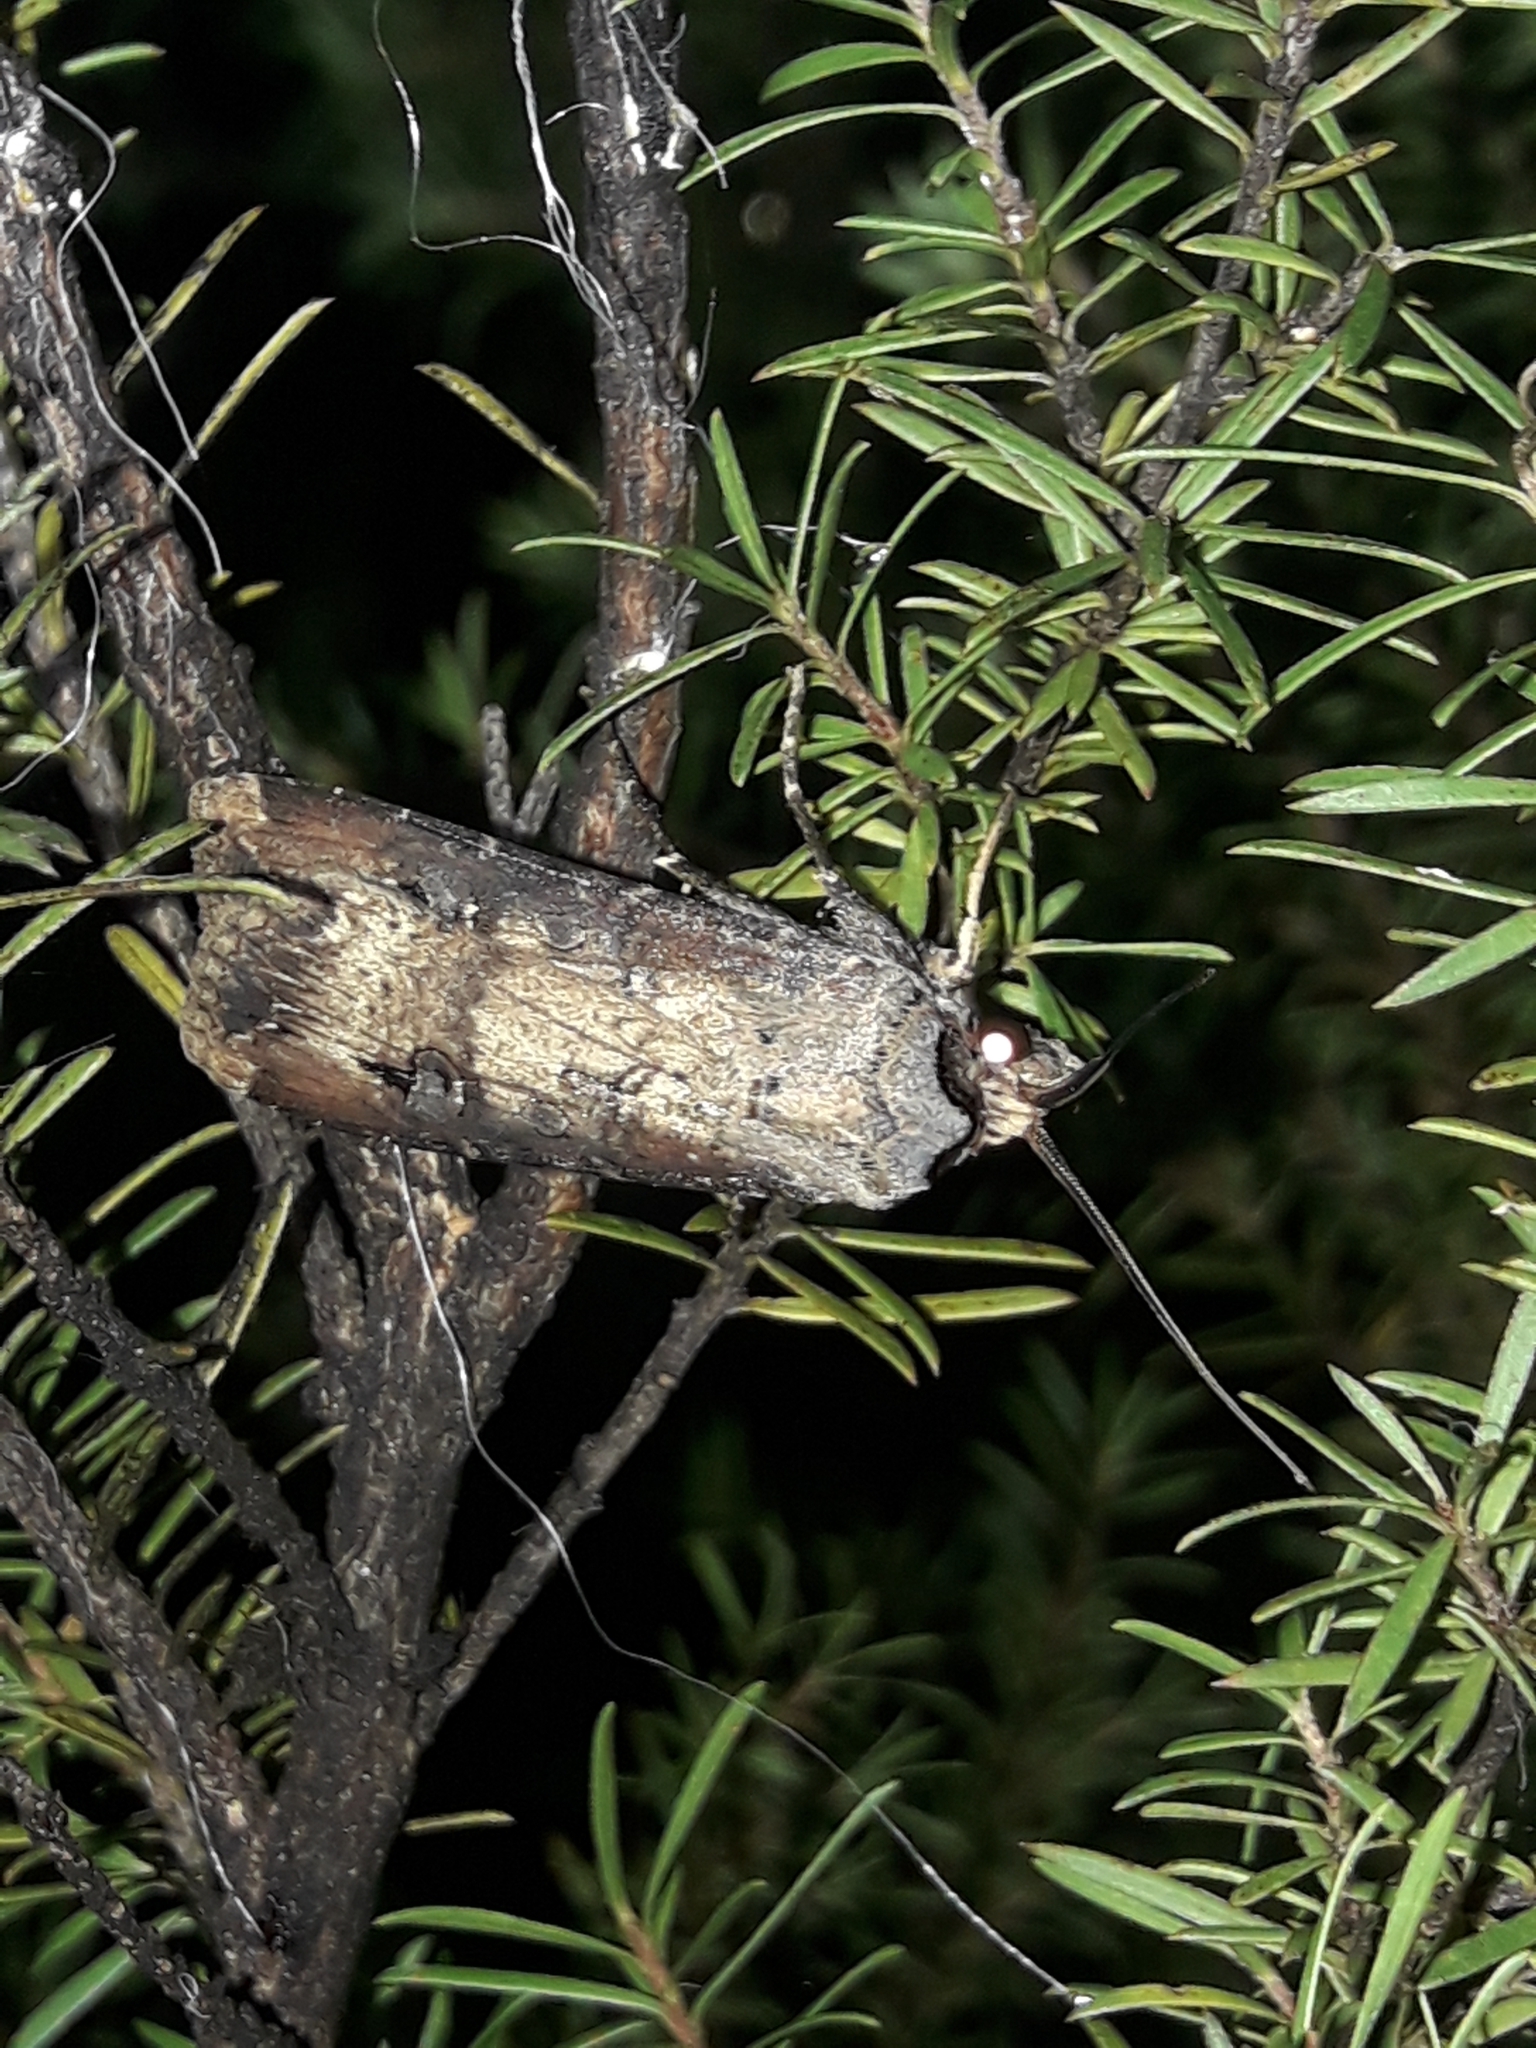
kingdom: Animalia
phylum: Arthropoda
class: Insecta
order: Lepidoptera
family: Noctuidae
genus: Agrotis
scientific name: Agrotis ipsilon
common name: Dark sword-grass
